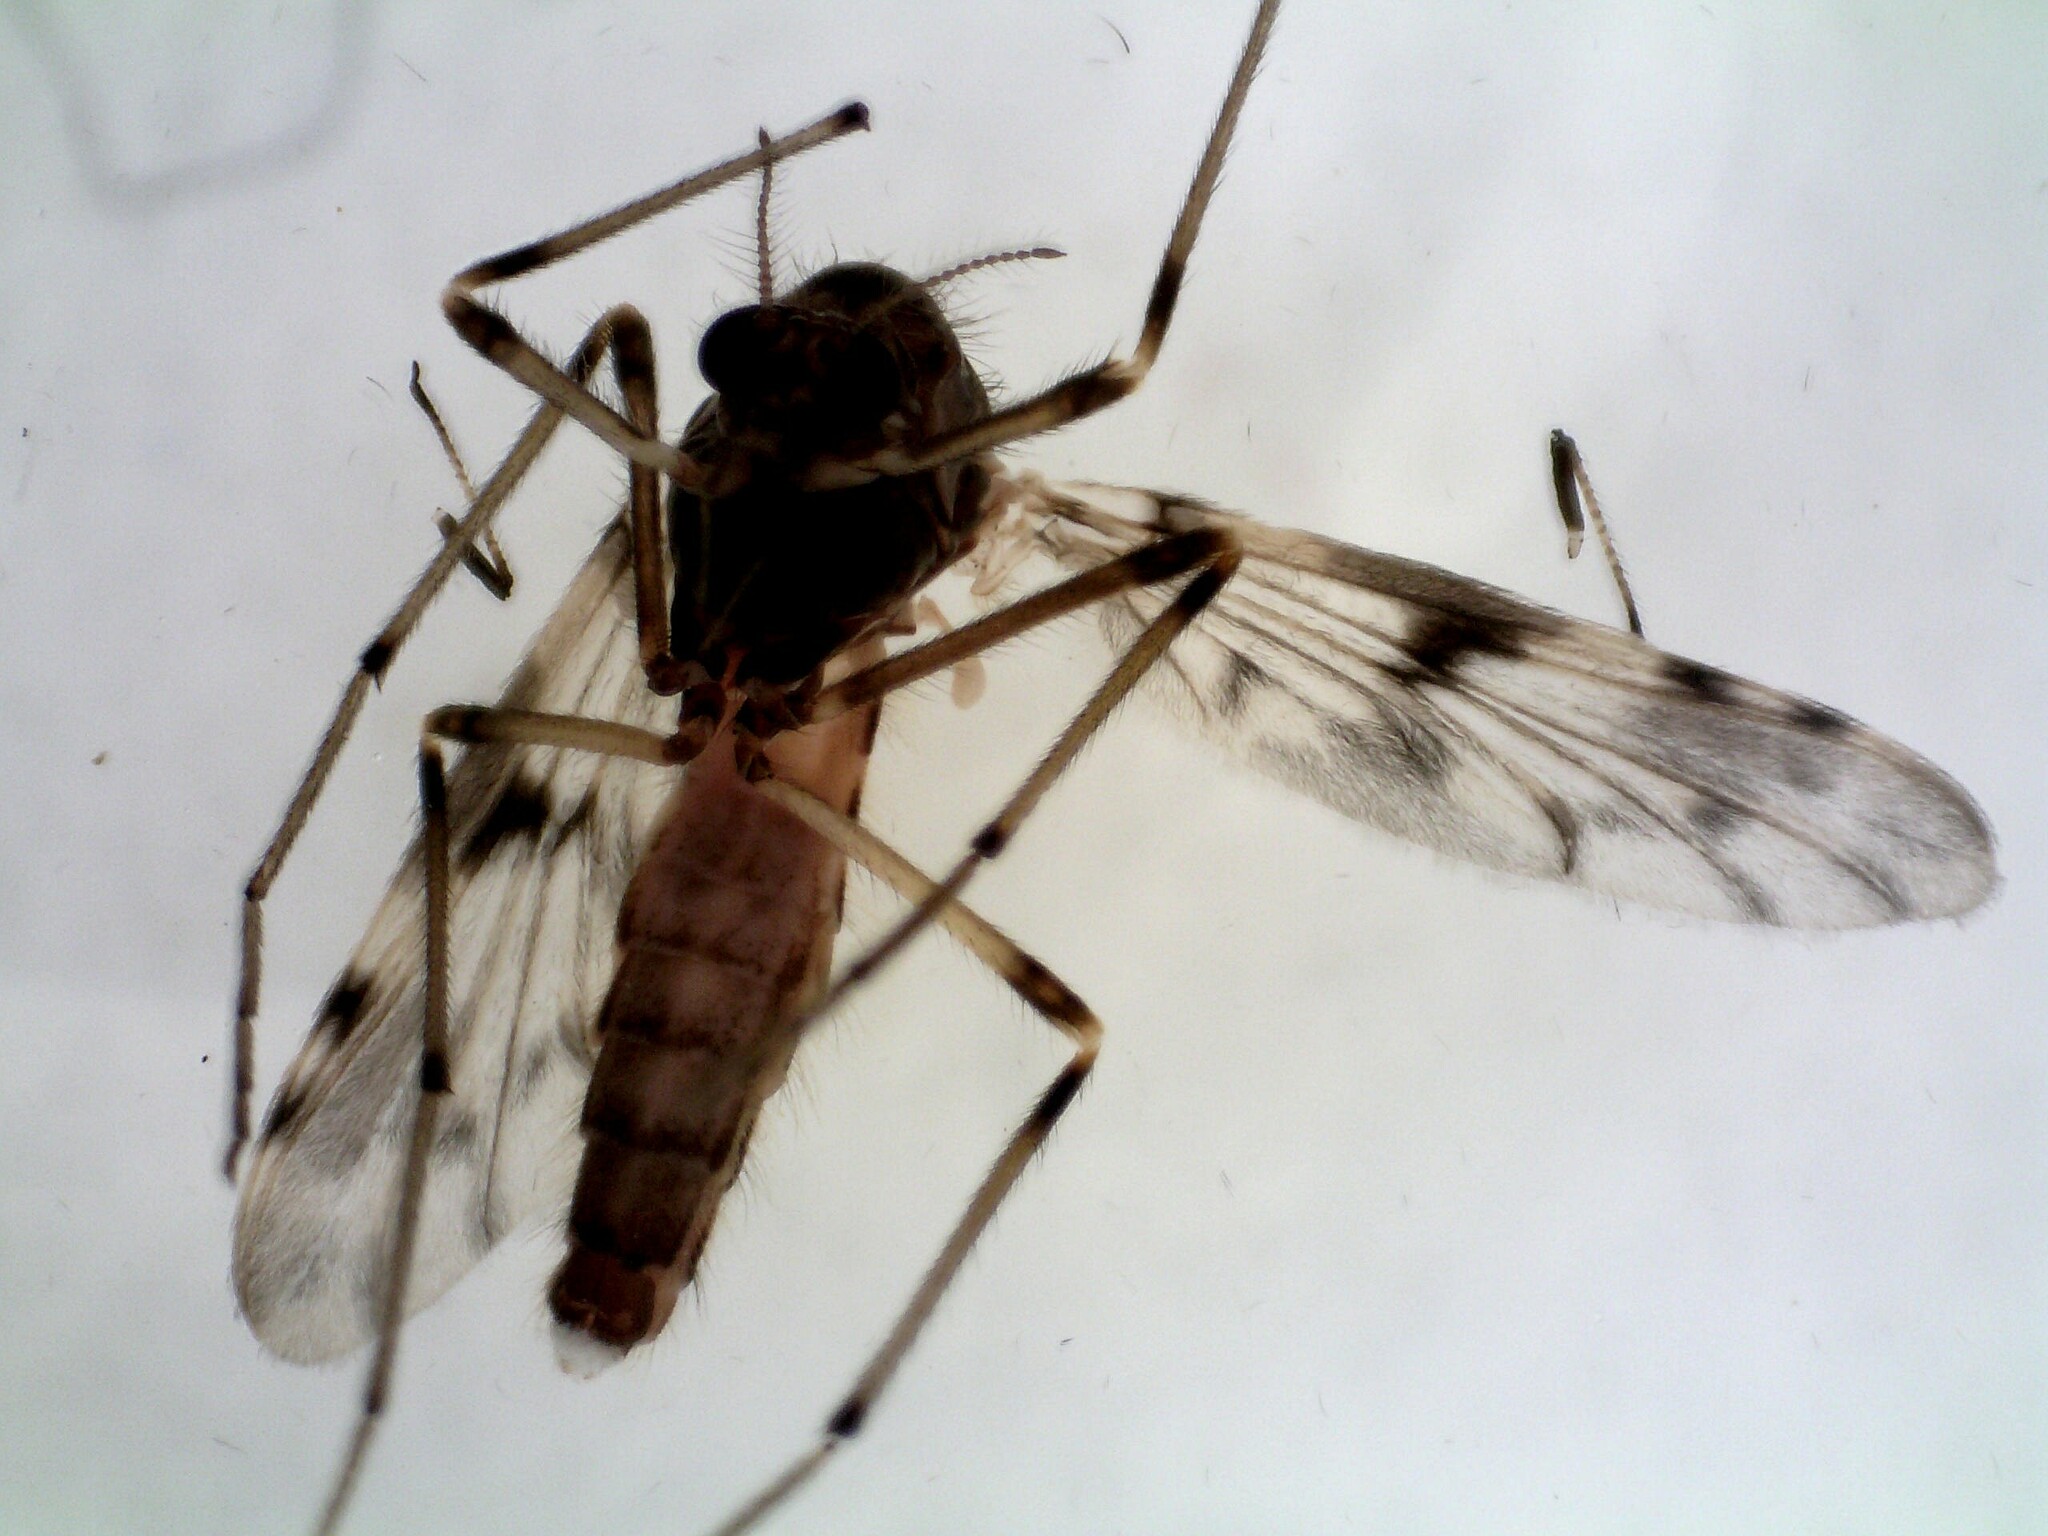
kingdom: Animalia
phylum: Arthropoda
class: Insecta
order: Diptera
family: Chironomidae
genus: Alotanypus
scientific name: Alotanypus venusta
